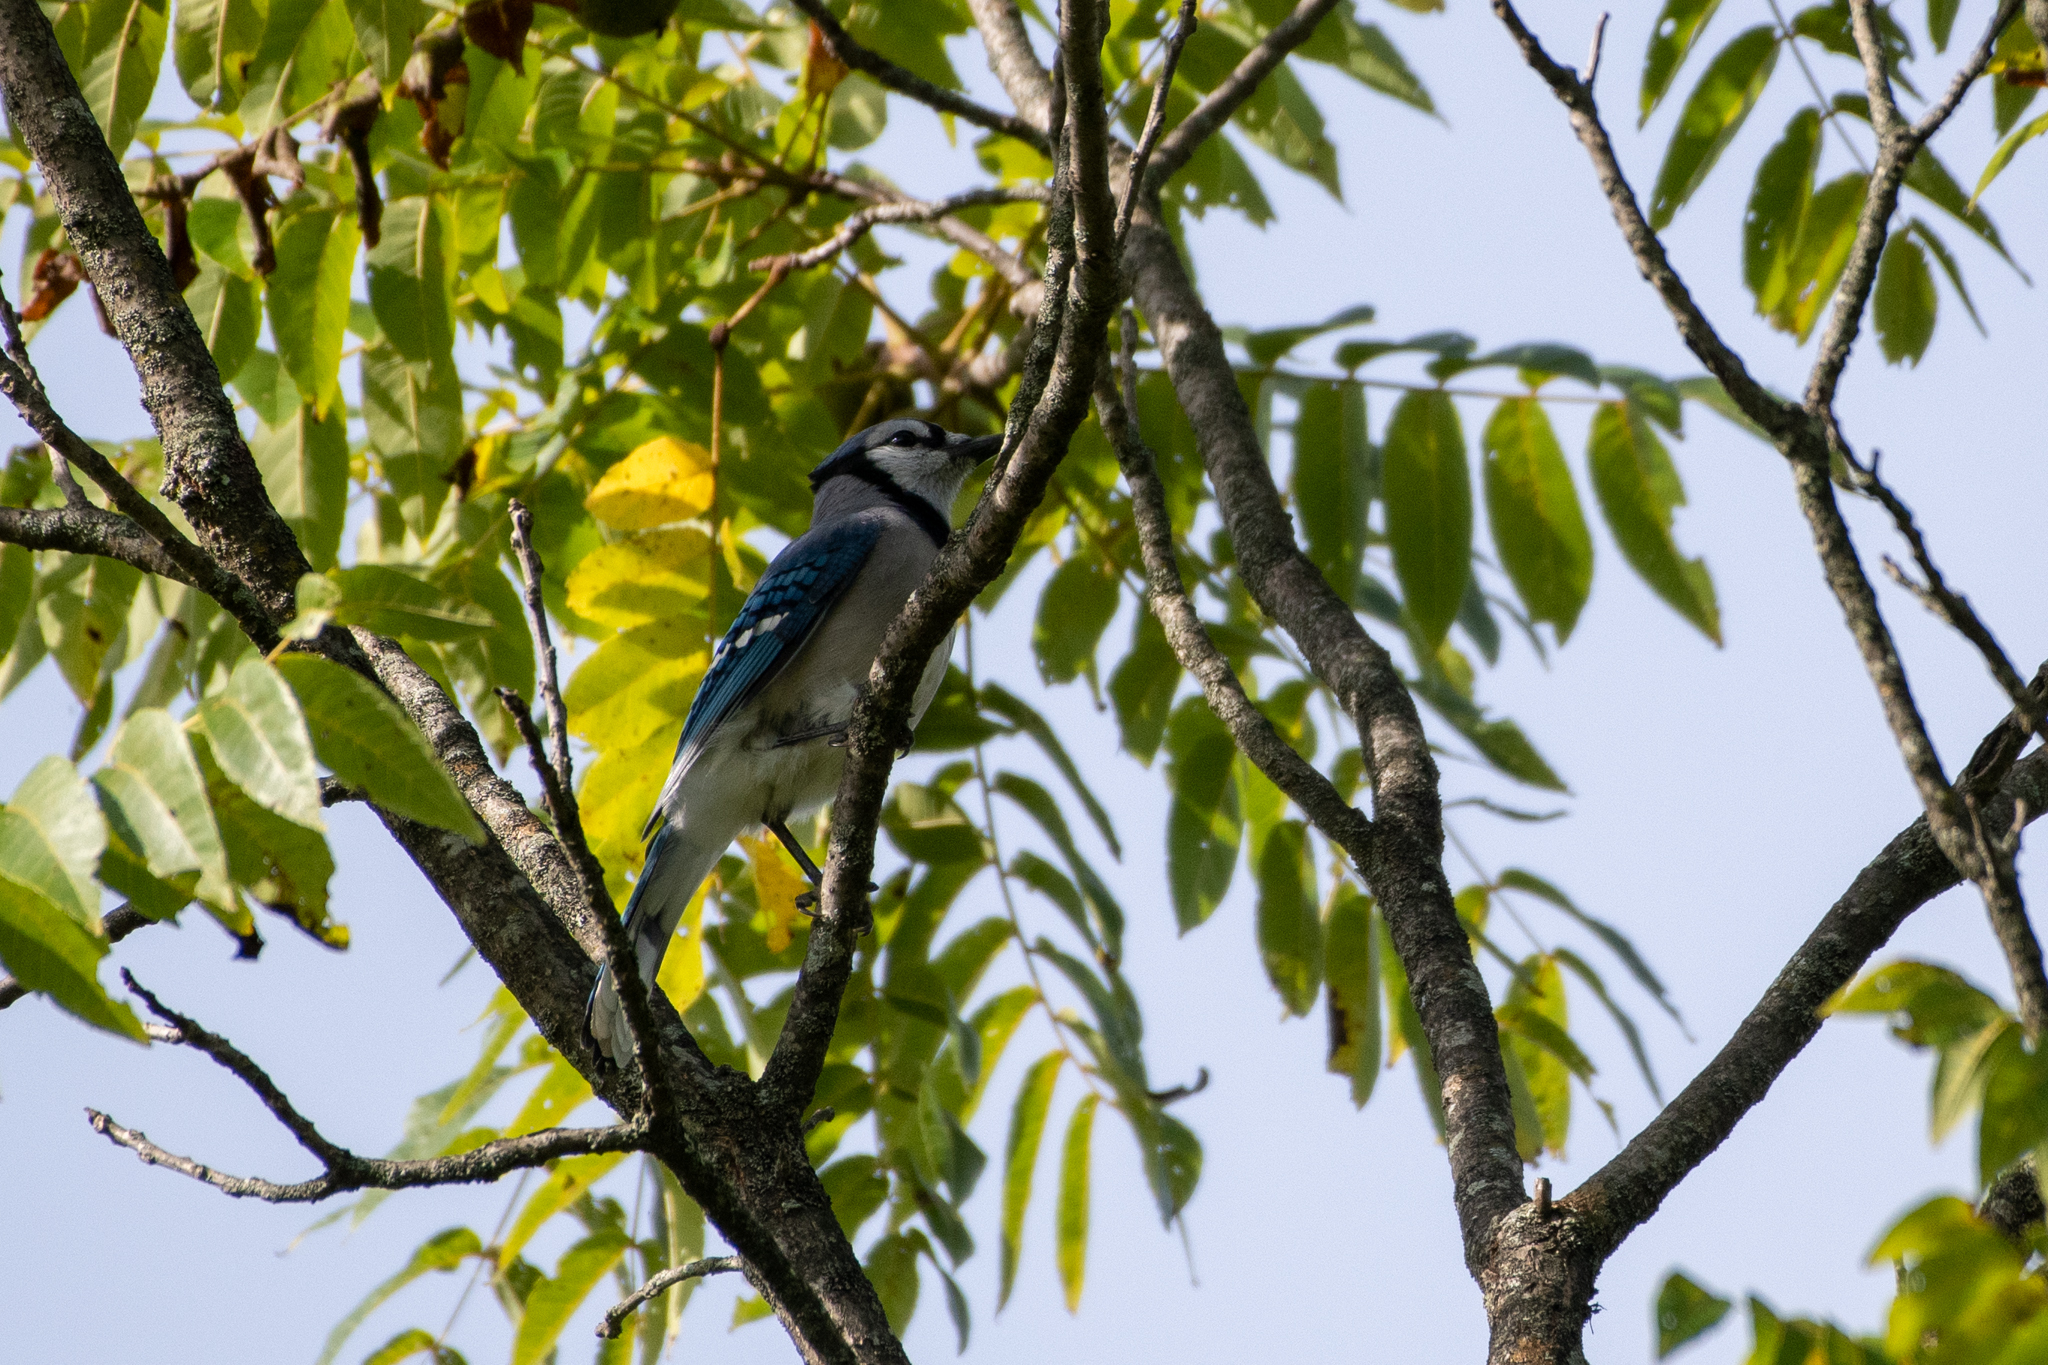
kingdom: Animalia
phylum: Chordata
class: Aves
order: Passeriformes
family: Corvidae
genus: Cyanocitta
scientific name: Cyanocitta cristata
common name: Blue jay
